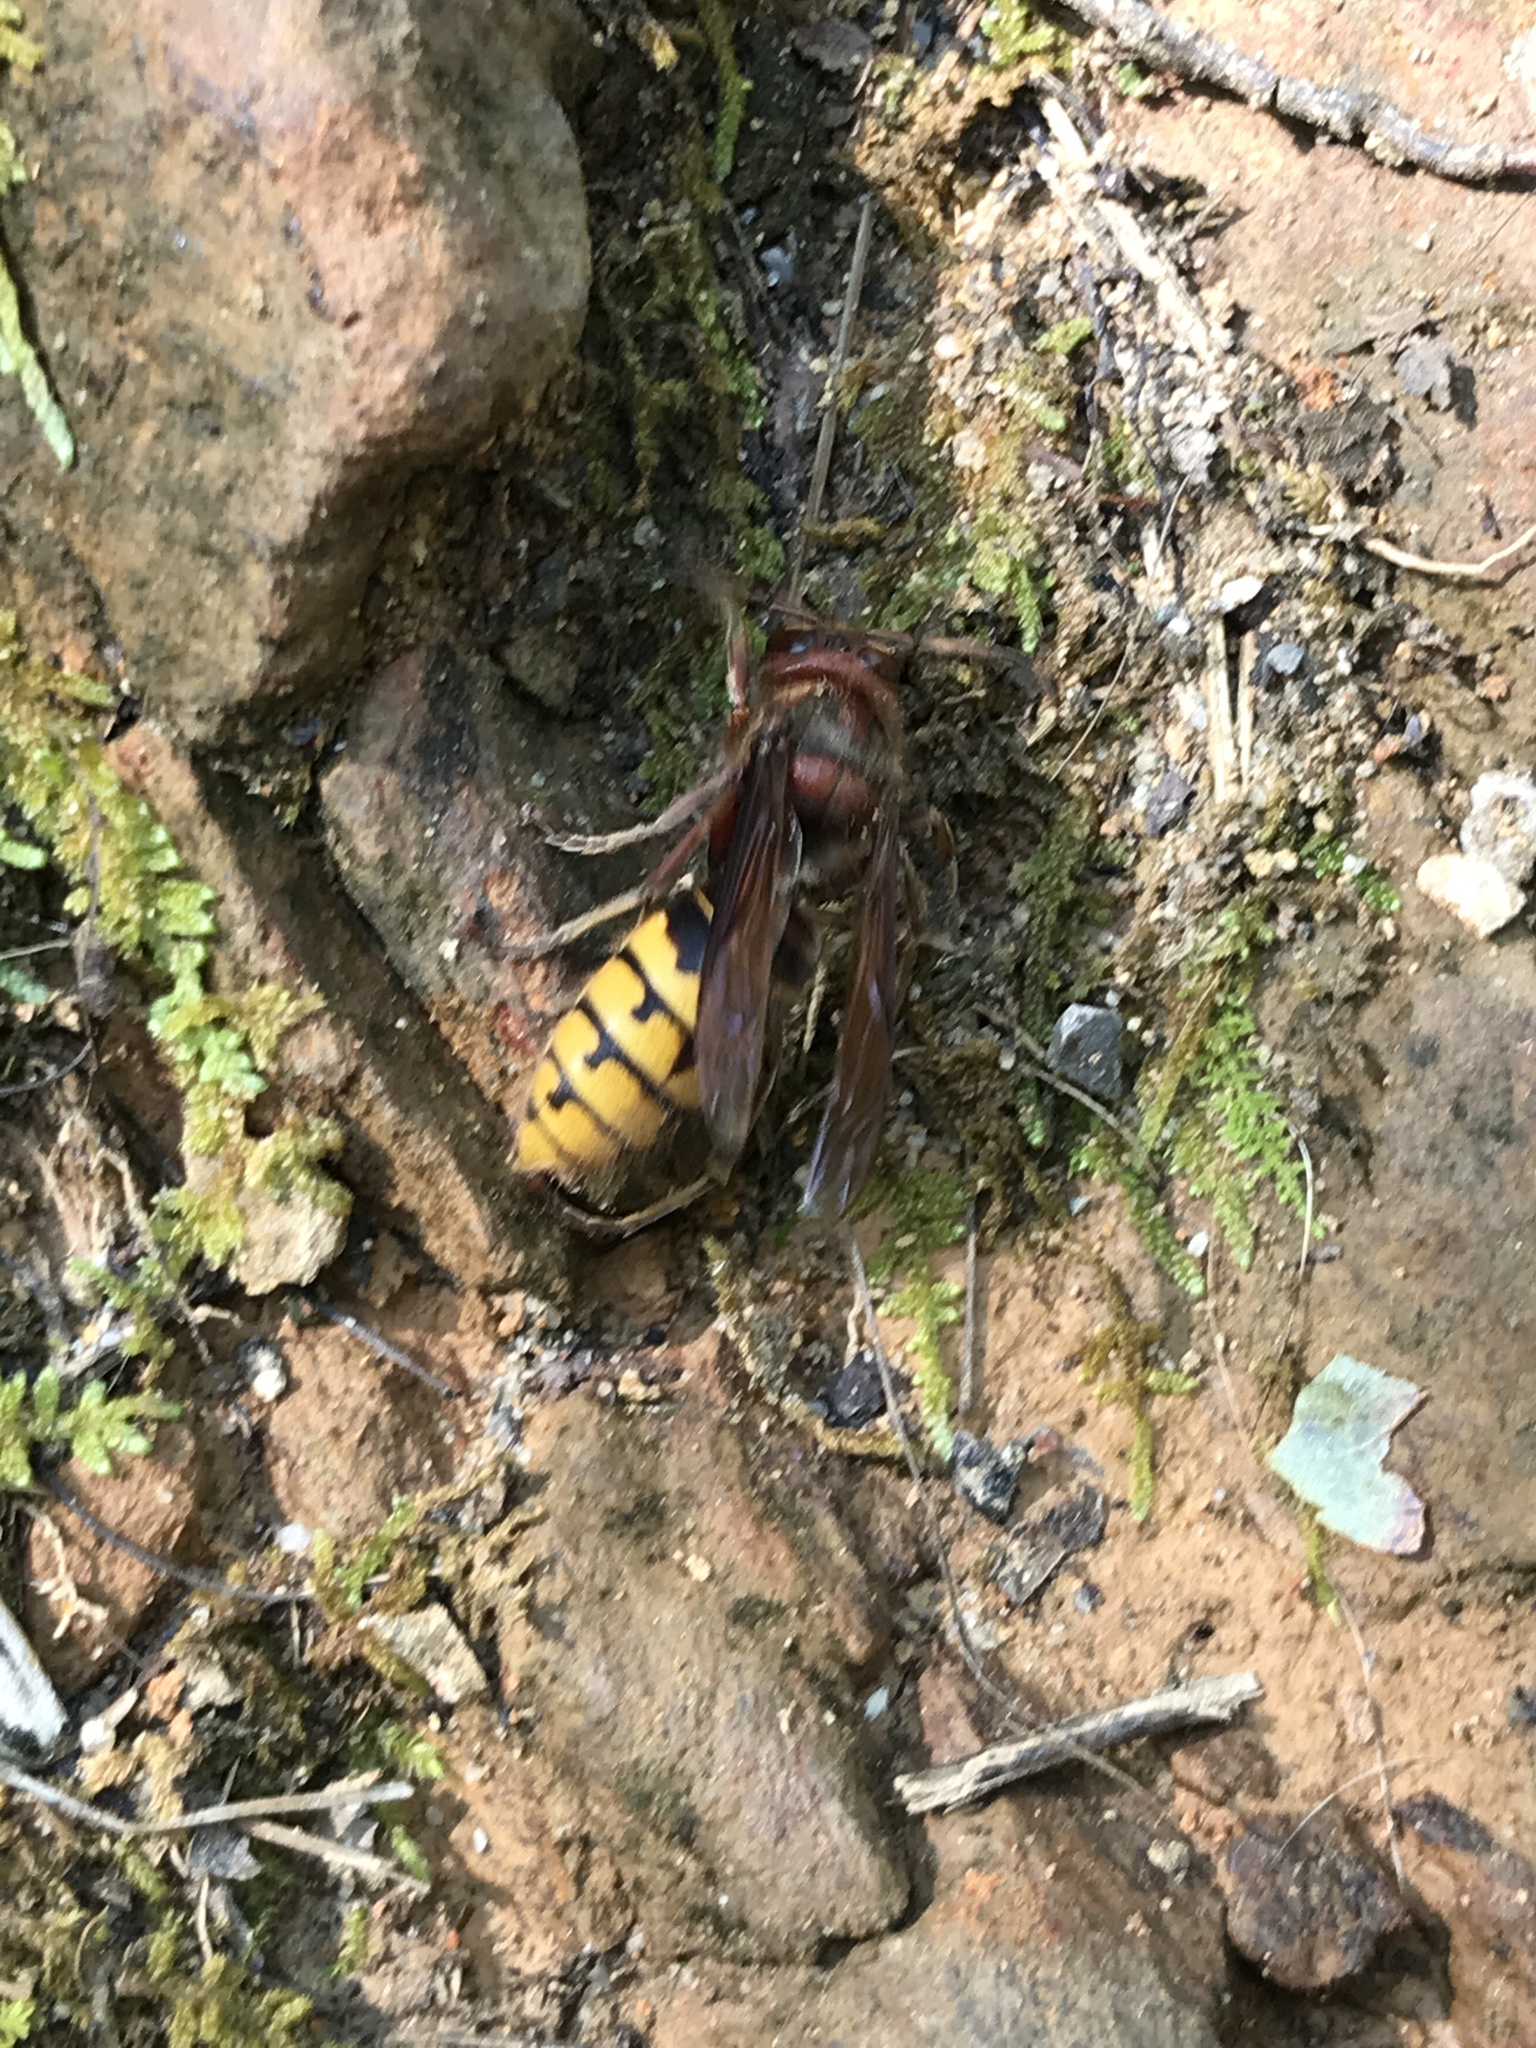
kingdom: Animalia
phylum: Arthropoda
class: Insecta
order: Hymenoptera
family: Vespidae
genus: Vespa
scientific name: Vespa crabro
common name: Hornet
